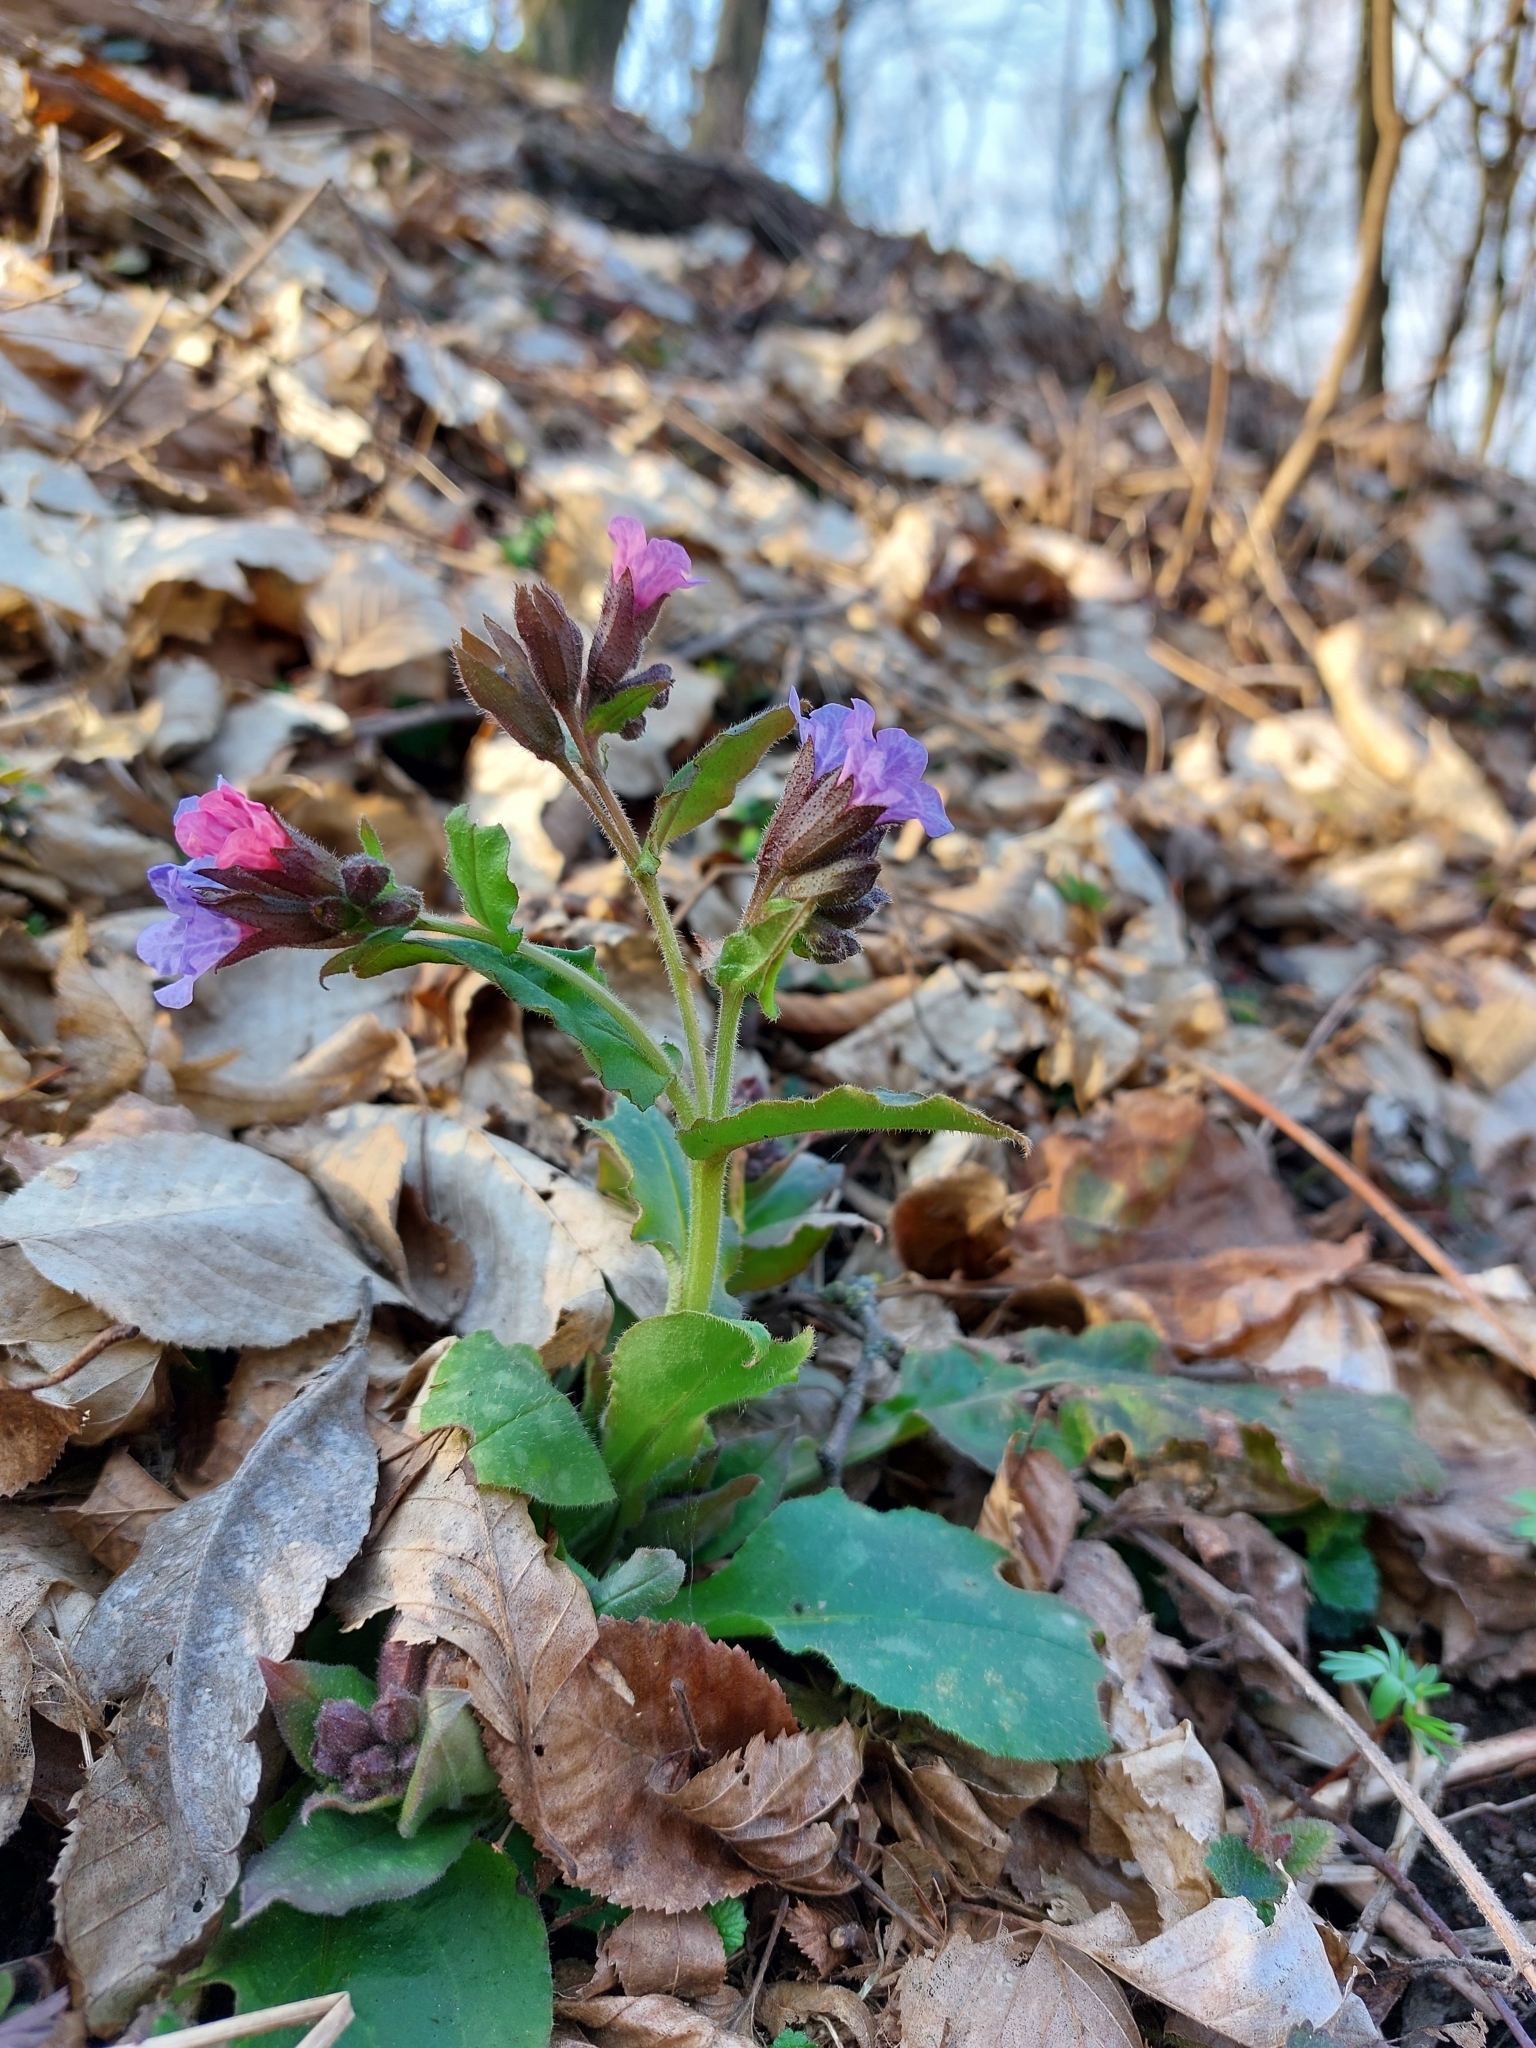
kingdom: Plantae
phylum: Tracheophyta
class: Magnoliopsida
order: Boraginales
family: Boraginaceae
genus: Pulmonaria
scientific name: Pulmonaria obscura
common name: Suffolk lungwort
